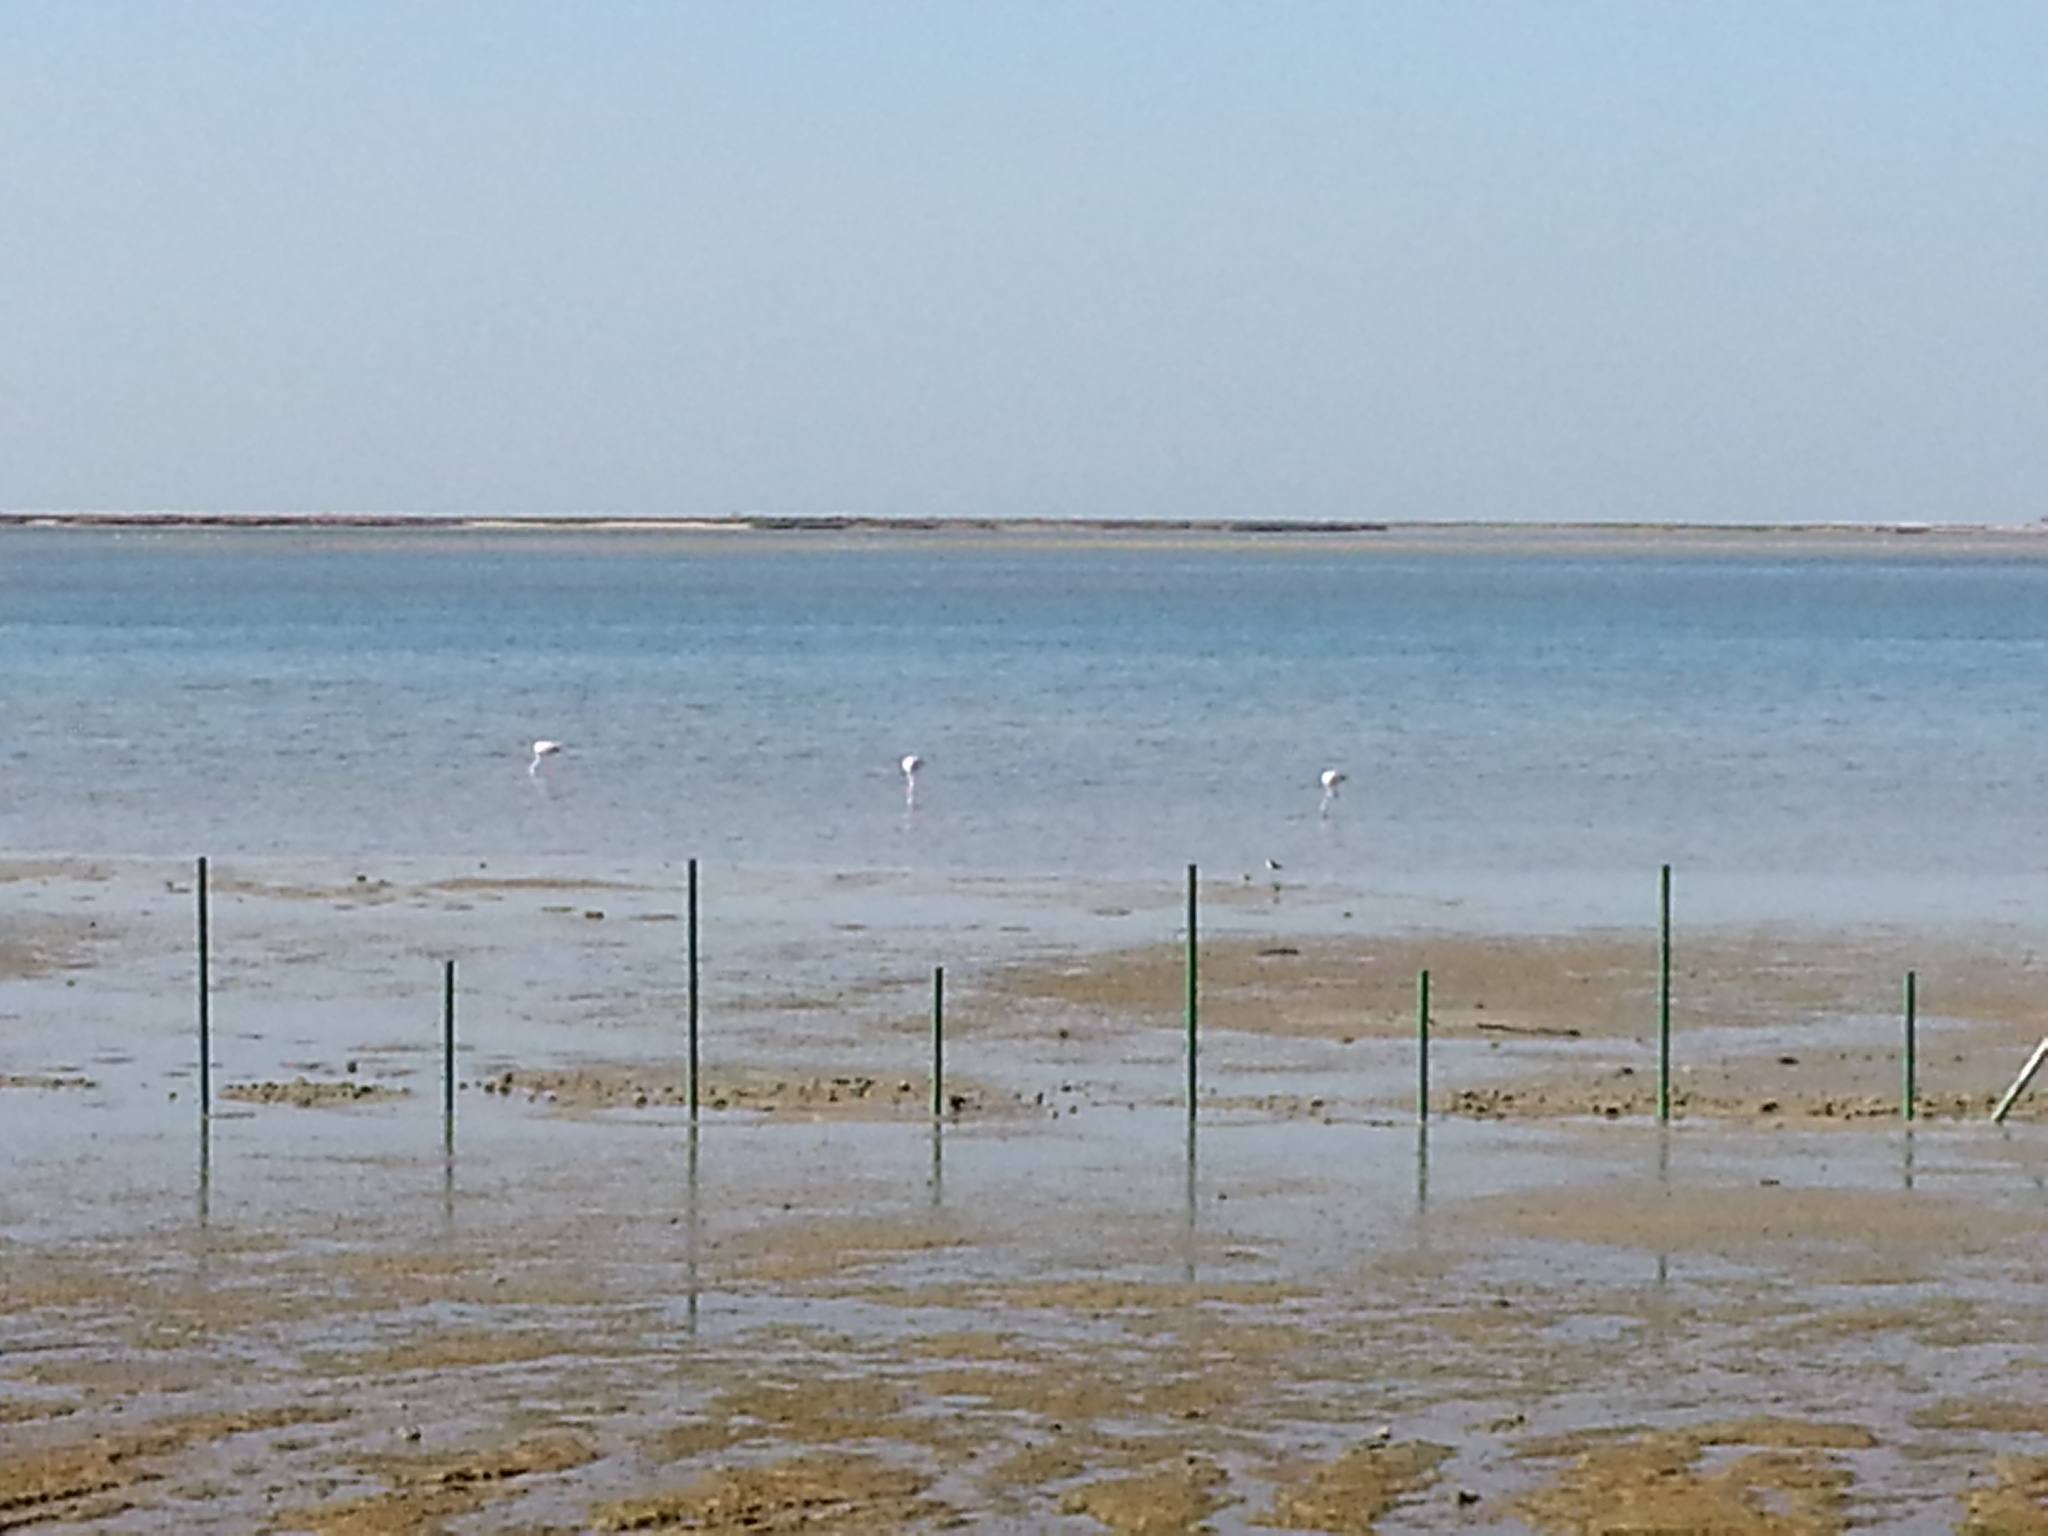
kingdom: Animalia
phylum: Chordata
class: Aves
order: Phoenicopteriformes
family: Phoenicopteridae
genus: Phoenicopterus
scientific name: Phoenicopterus roseus
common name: Greater flamingo
